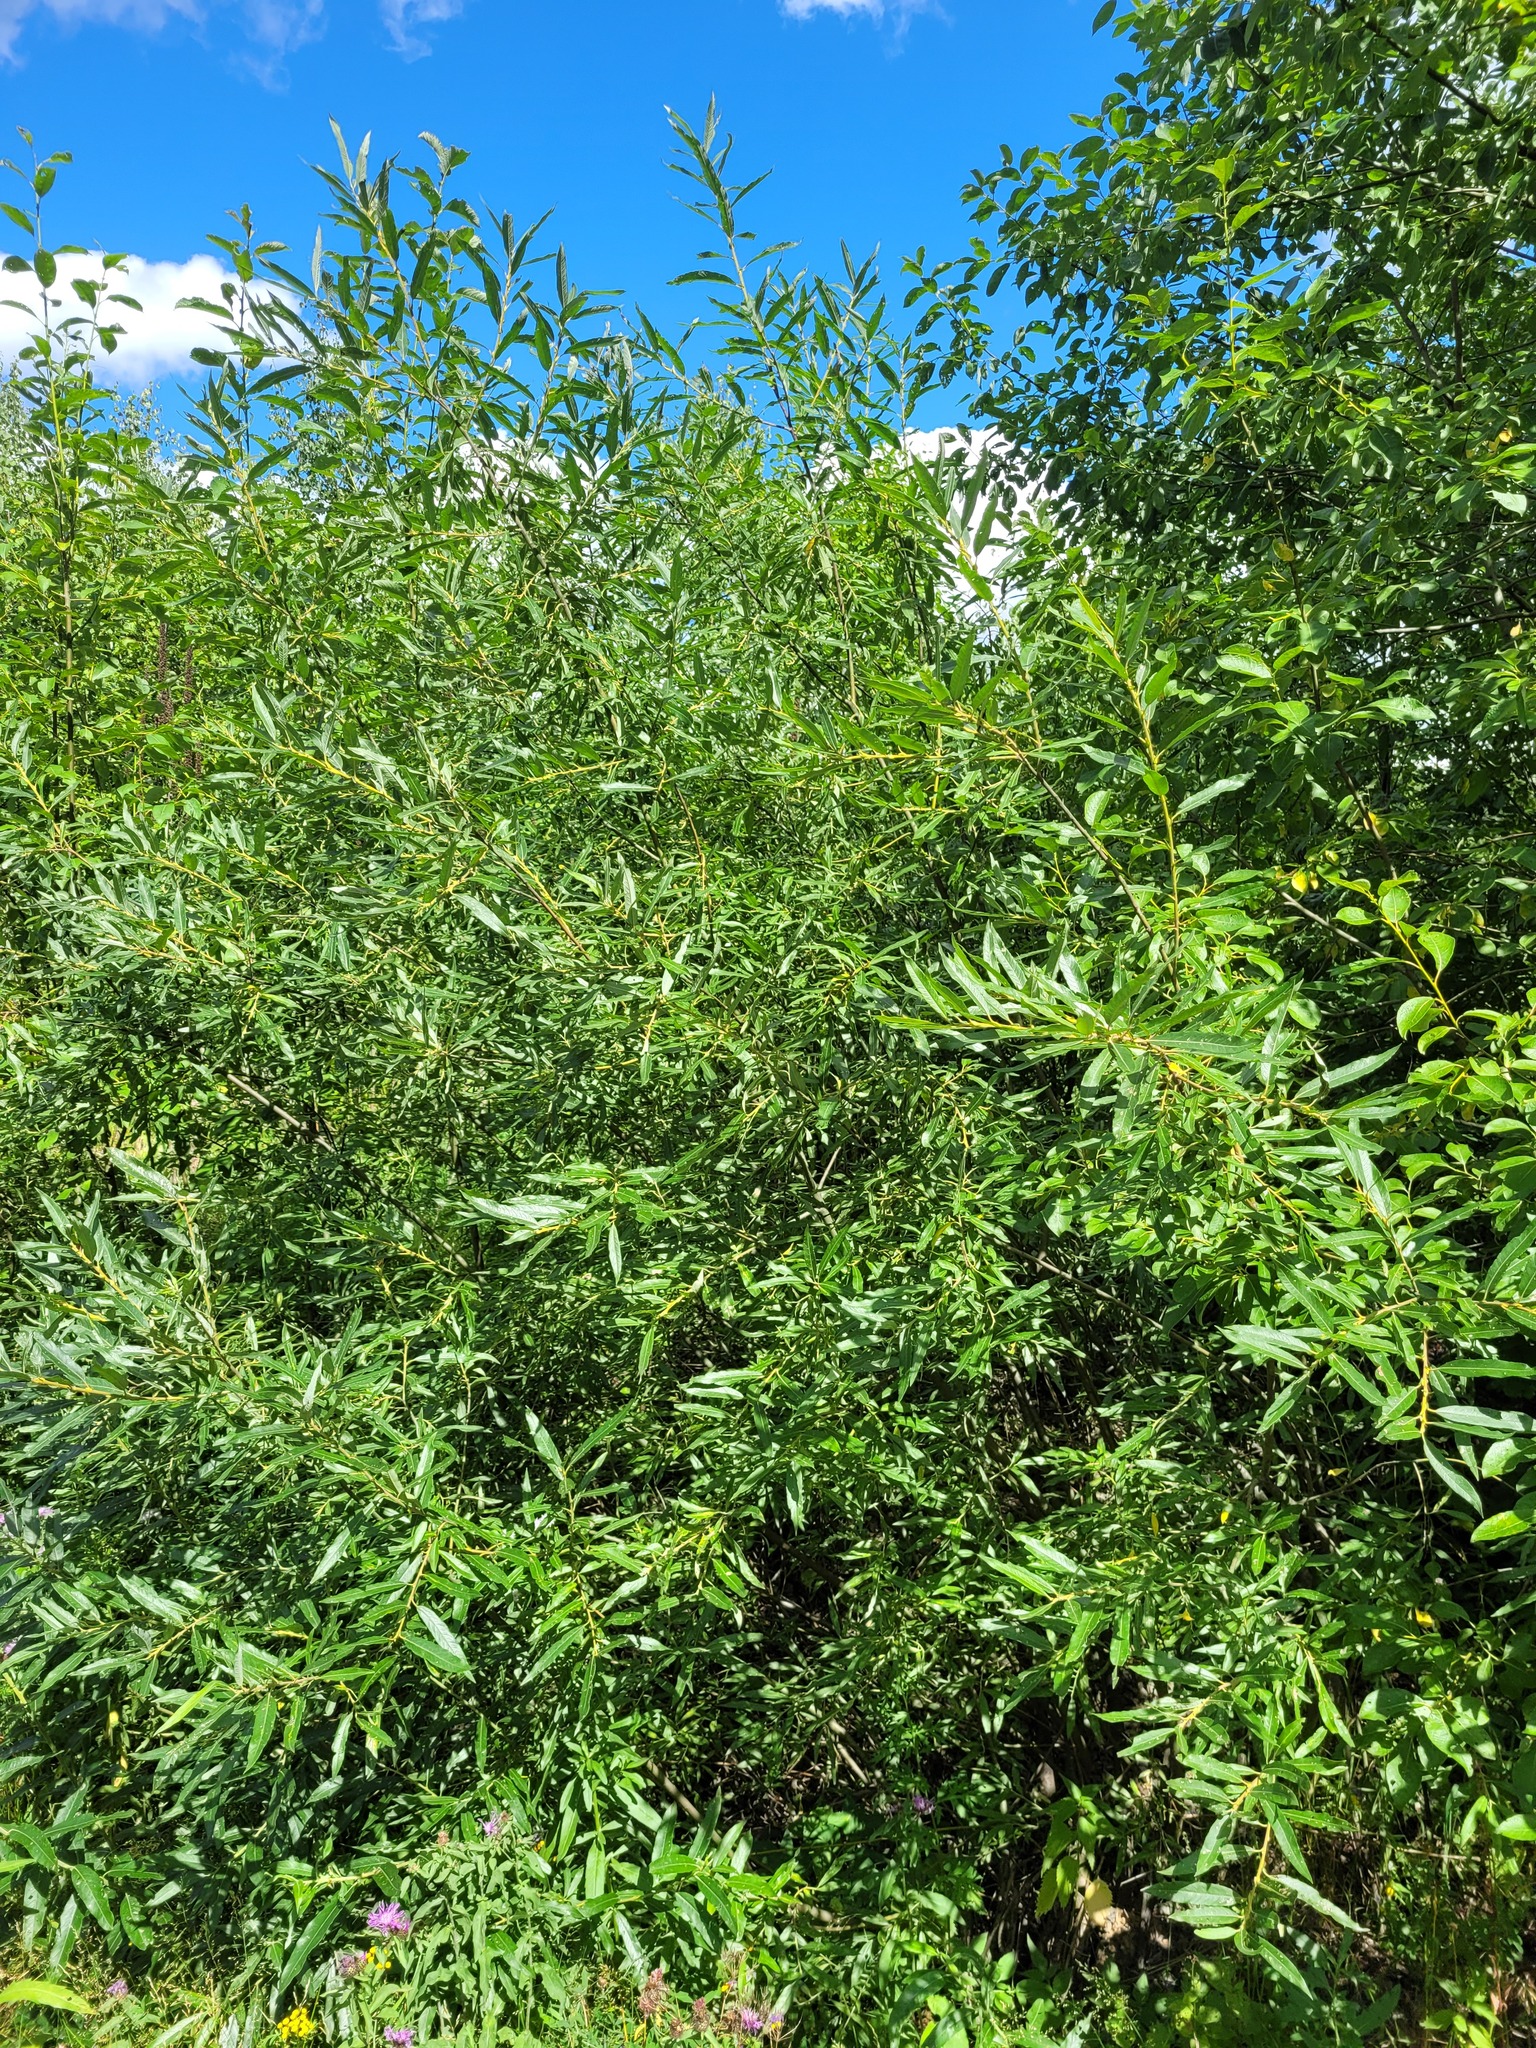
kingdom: Plantae
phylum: Tracheophyta
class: Magnoliopsida
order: Malpighiales
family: Salicaceae
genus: Salix
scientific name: Salix viminalis
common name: Osier
